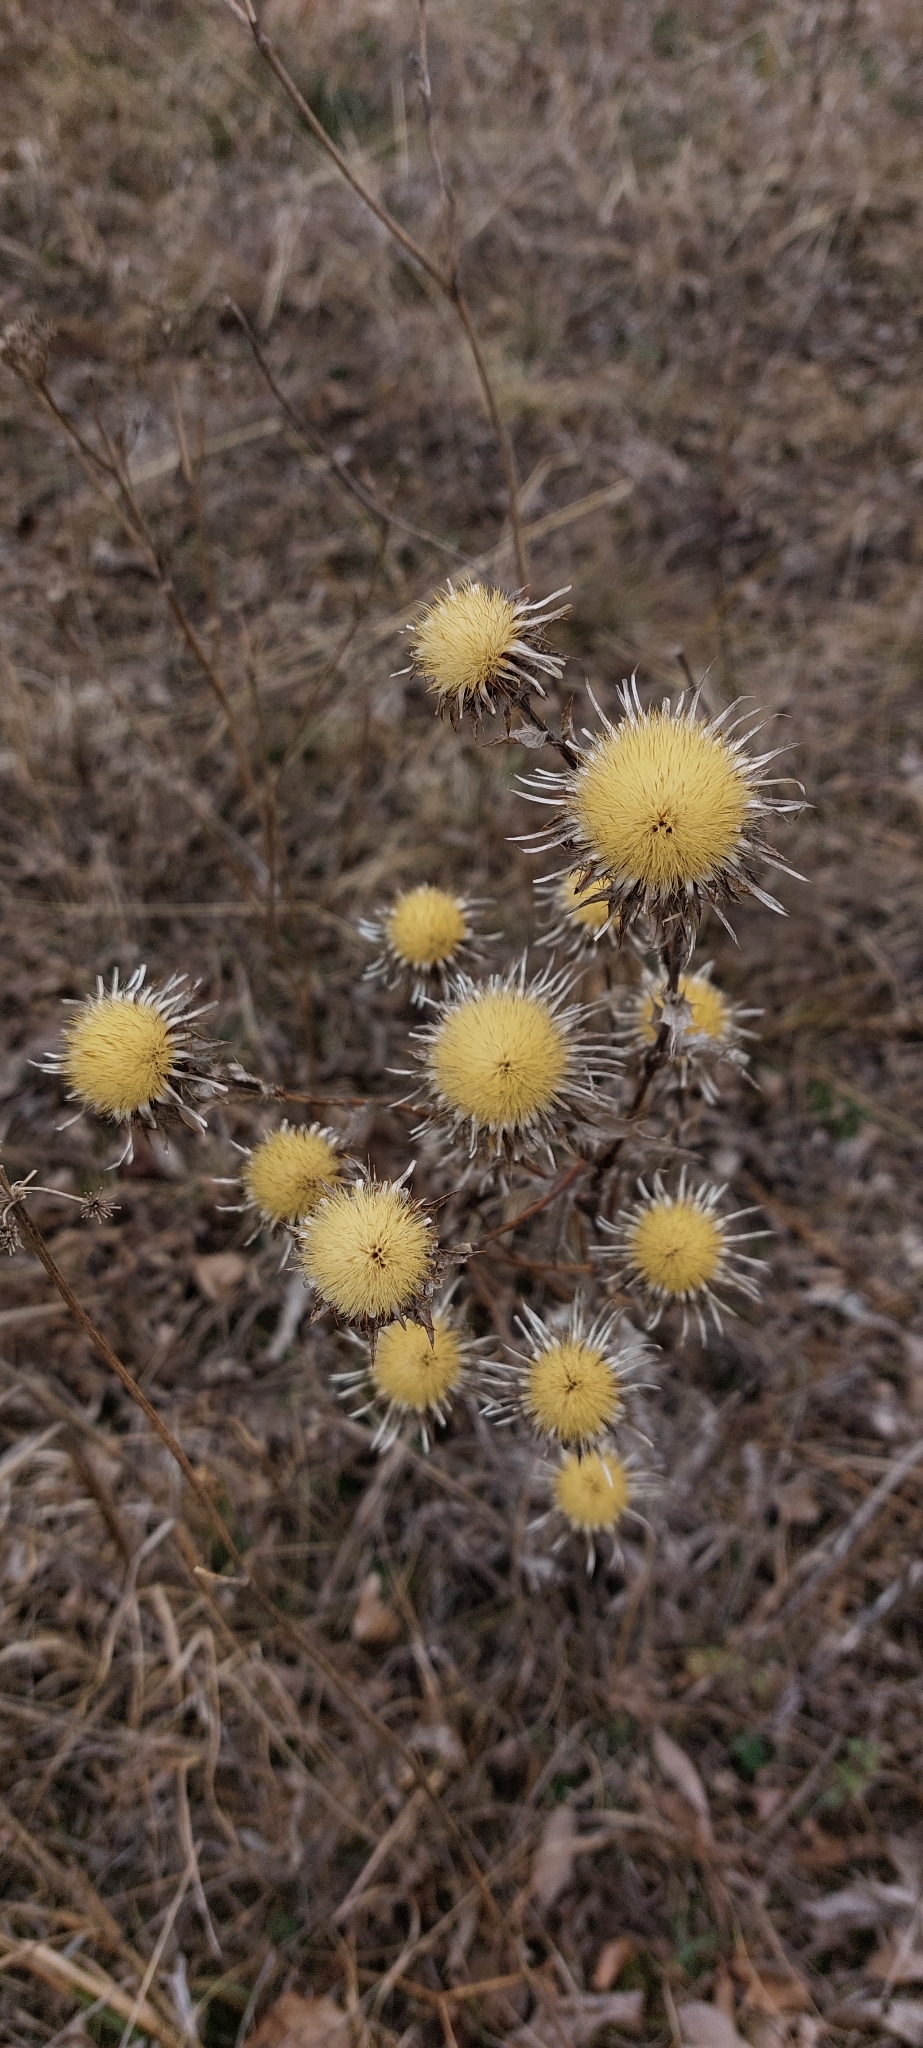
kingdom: Plantae
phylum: Tracheophyta
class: Magnoliopsida
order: Asterales
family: Asteraceae
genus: Carlina
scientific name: Carlina
